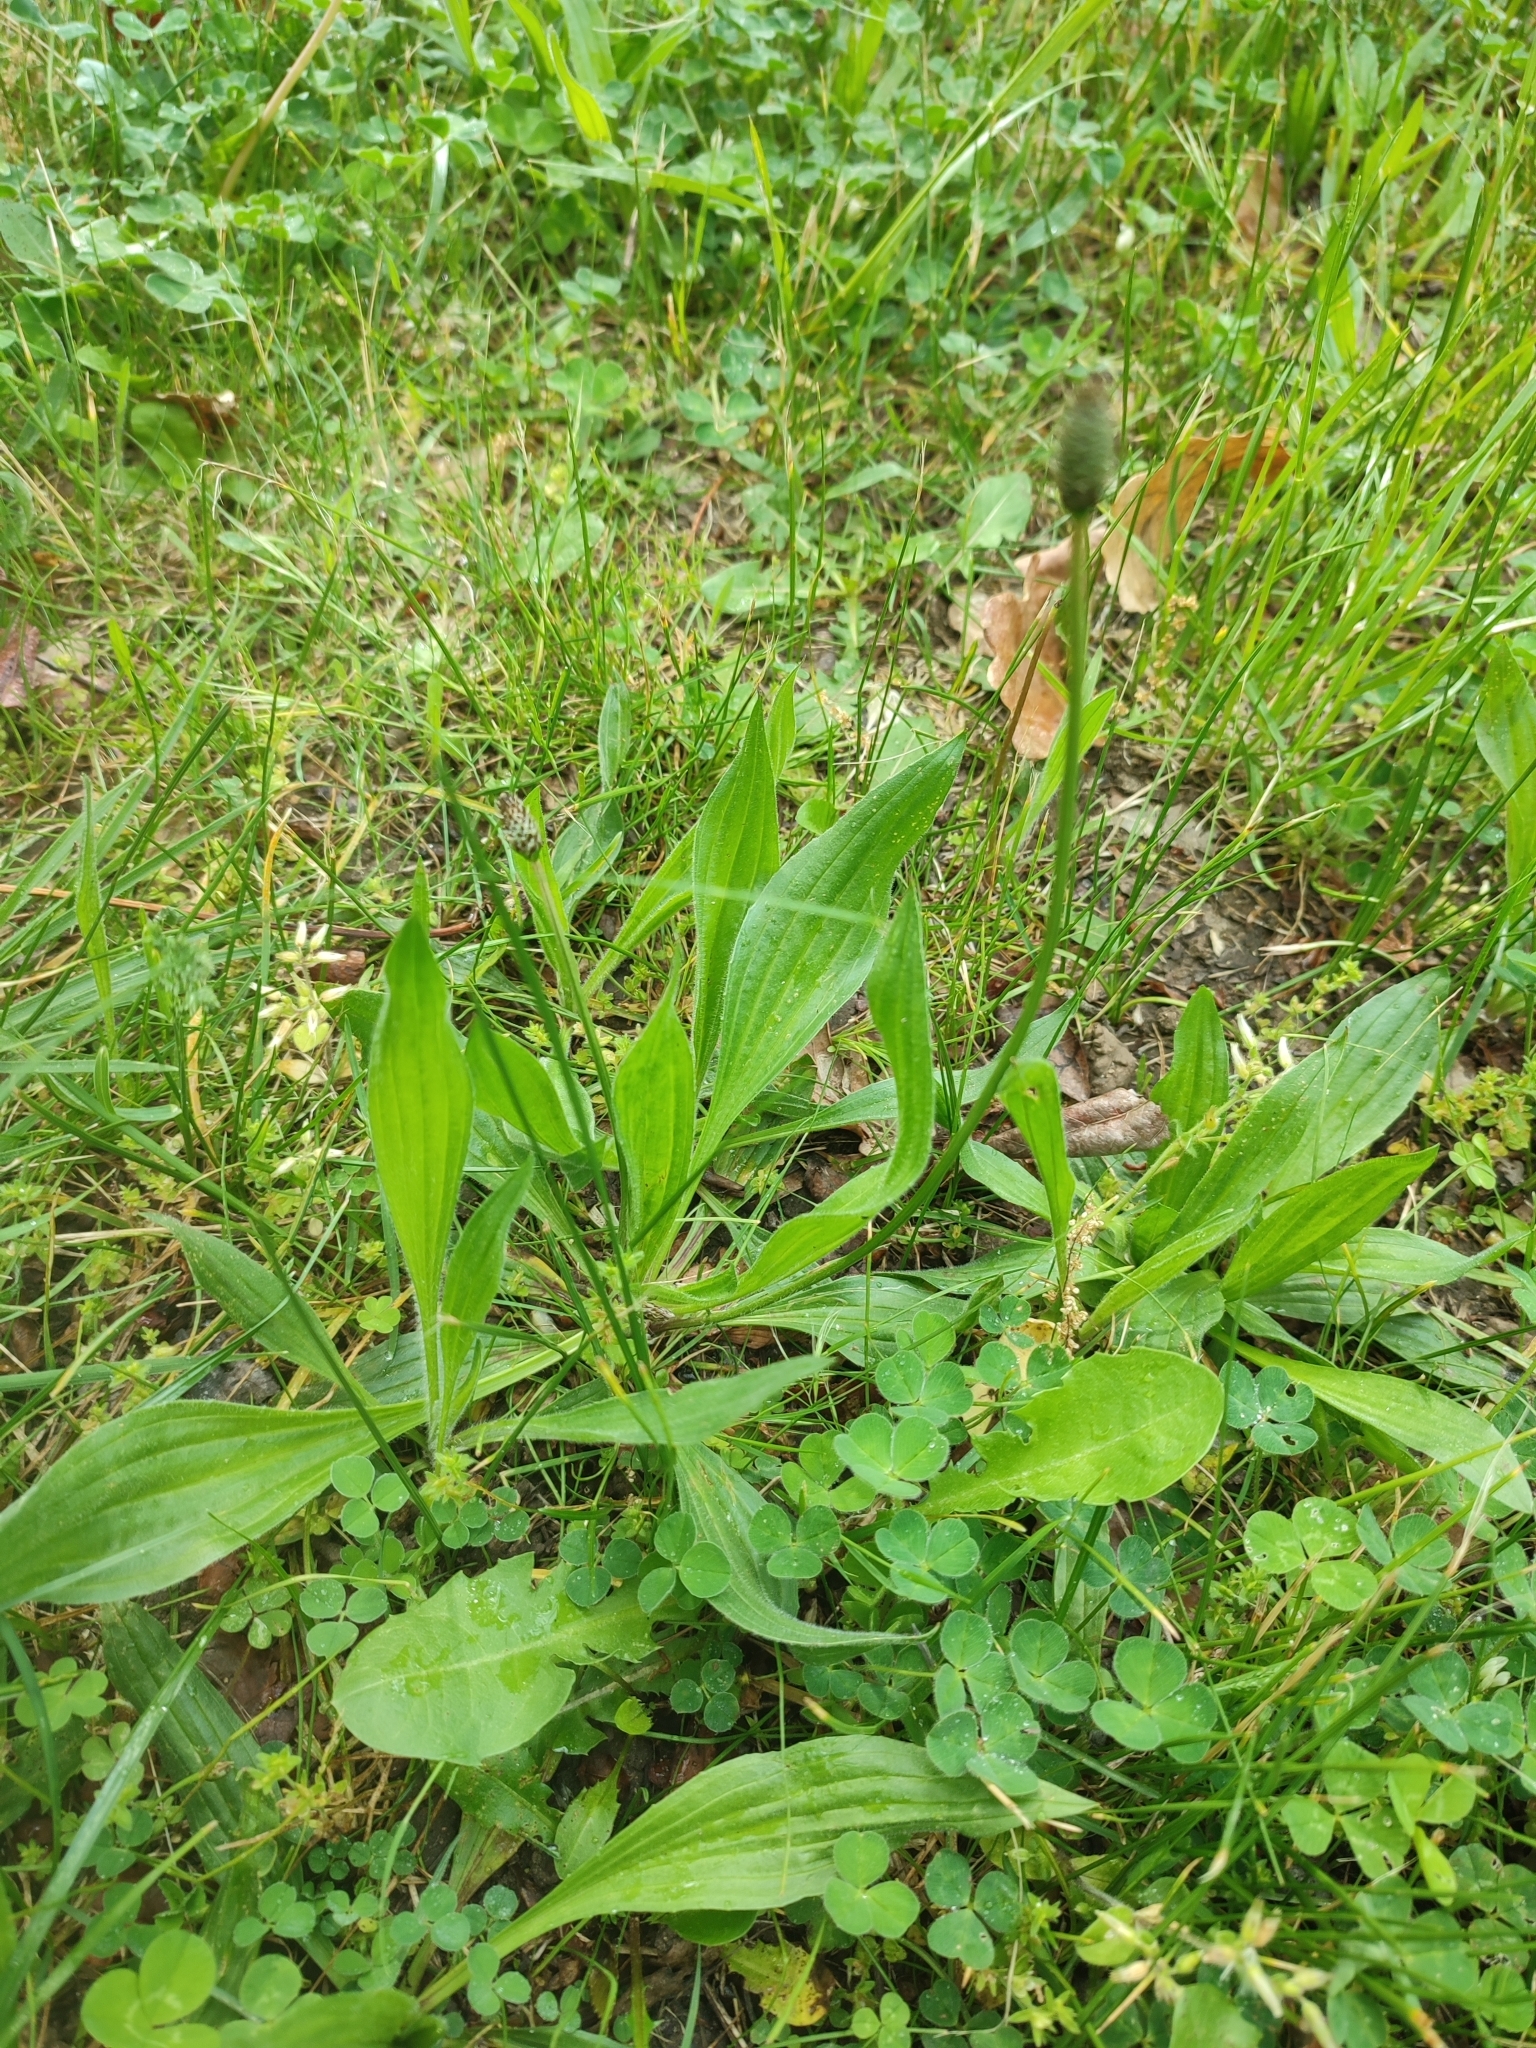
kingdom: Plantae
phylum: Tracheophyta
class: Magnoliopsida
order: Lamiales
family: Plantaginaceae
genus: Plantago
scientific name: Plantago lanceolata
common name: Ribwort plantain
